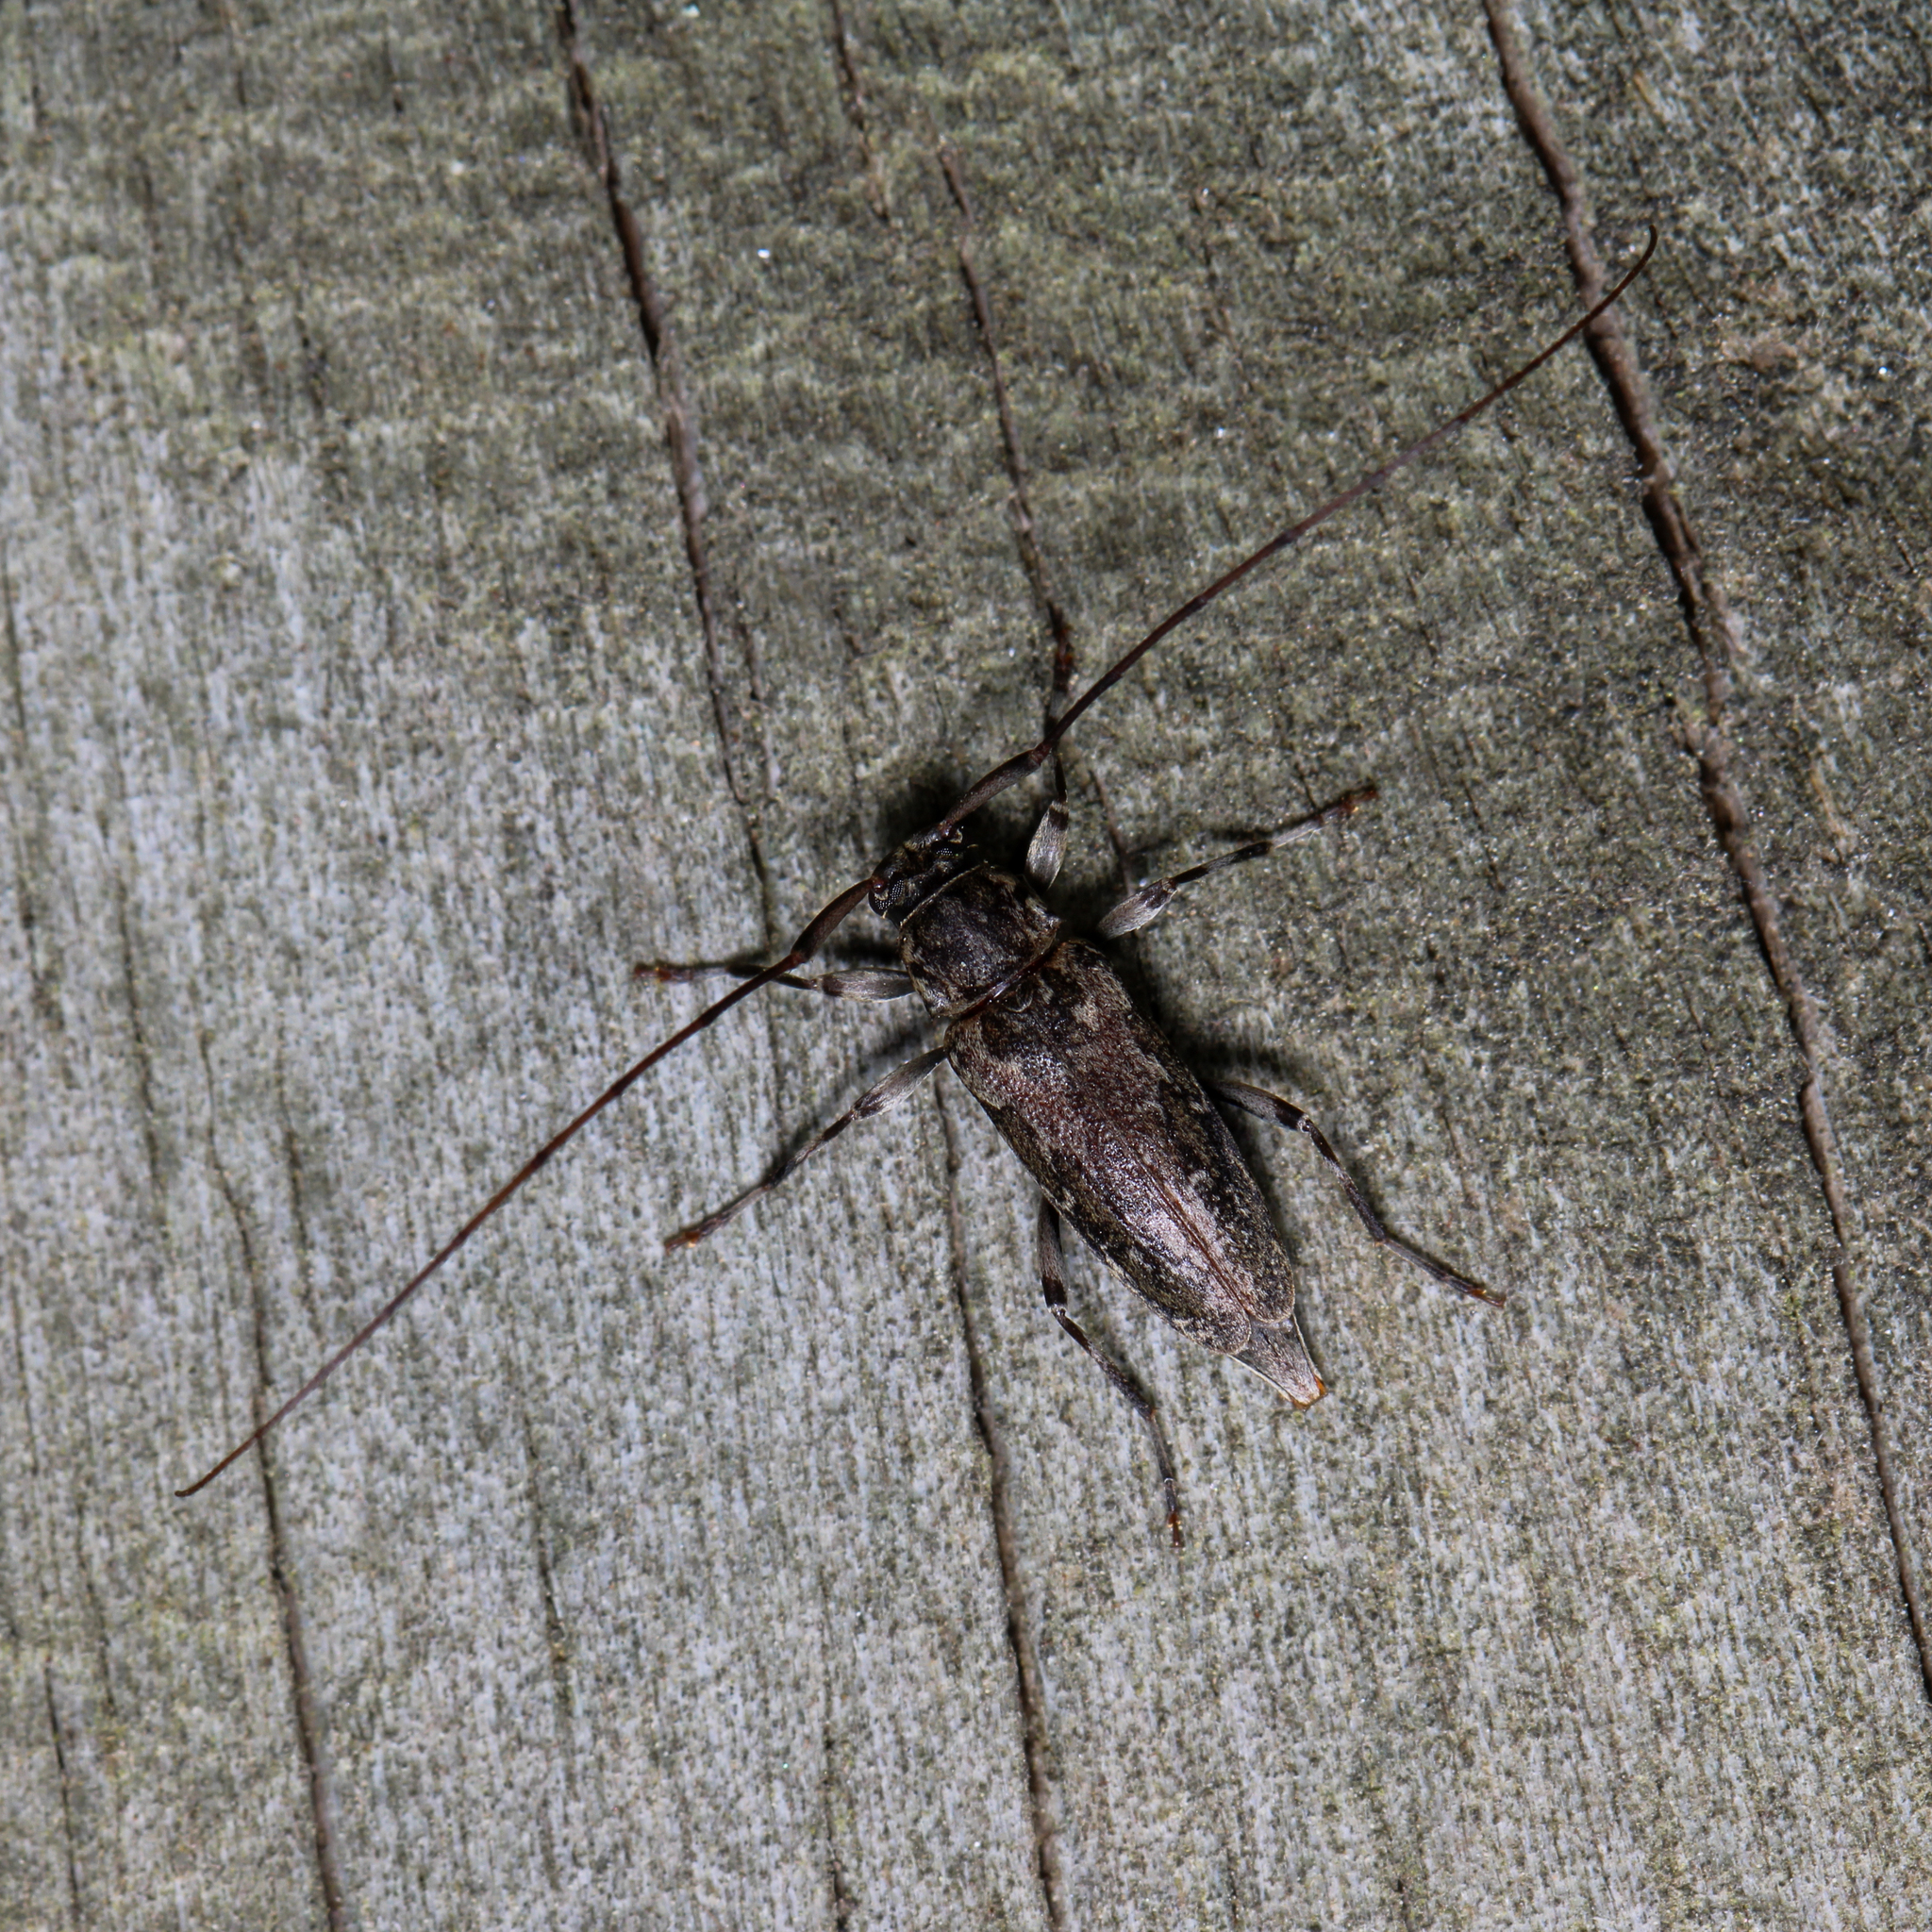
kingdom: Animalia
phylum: Arthropoda
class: Insecta
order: Coleoptera
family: Cerambycidae
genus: Lepturges
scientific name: Lepturges confluens
